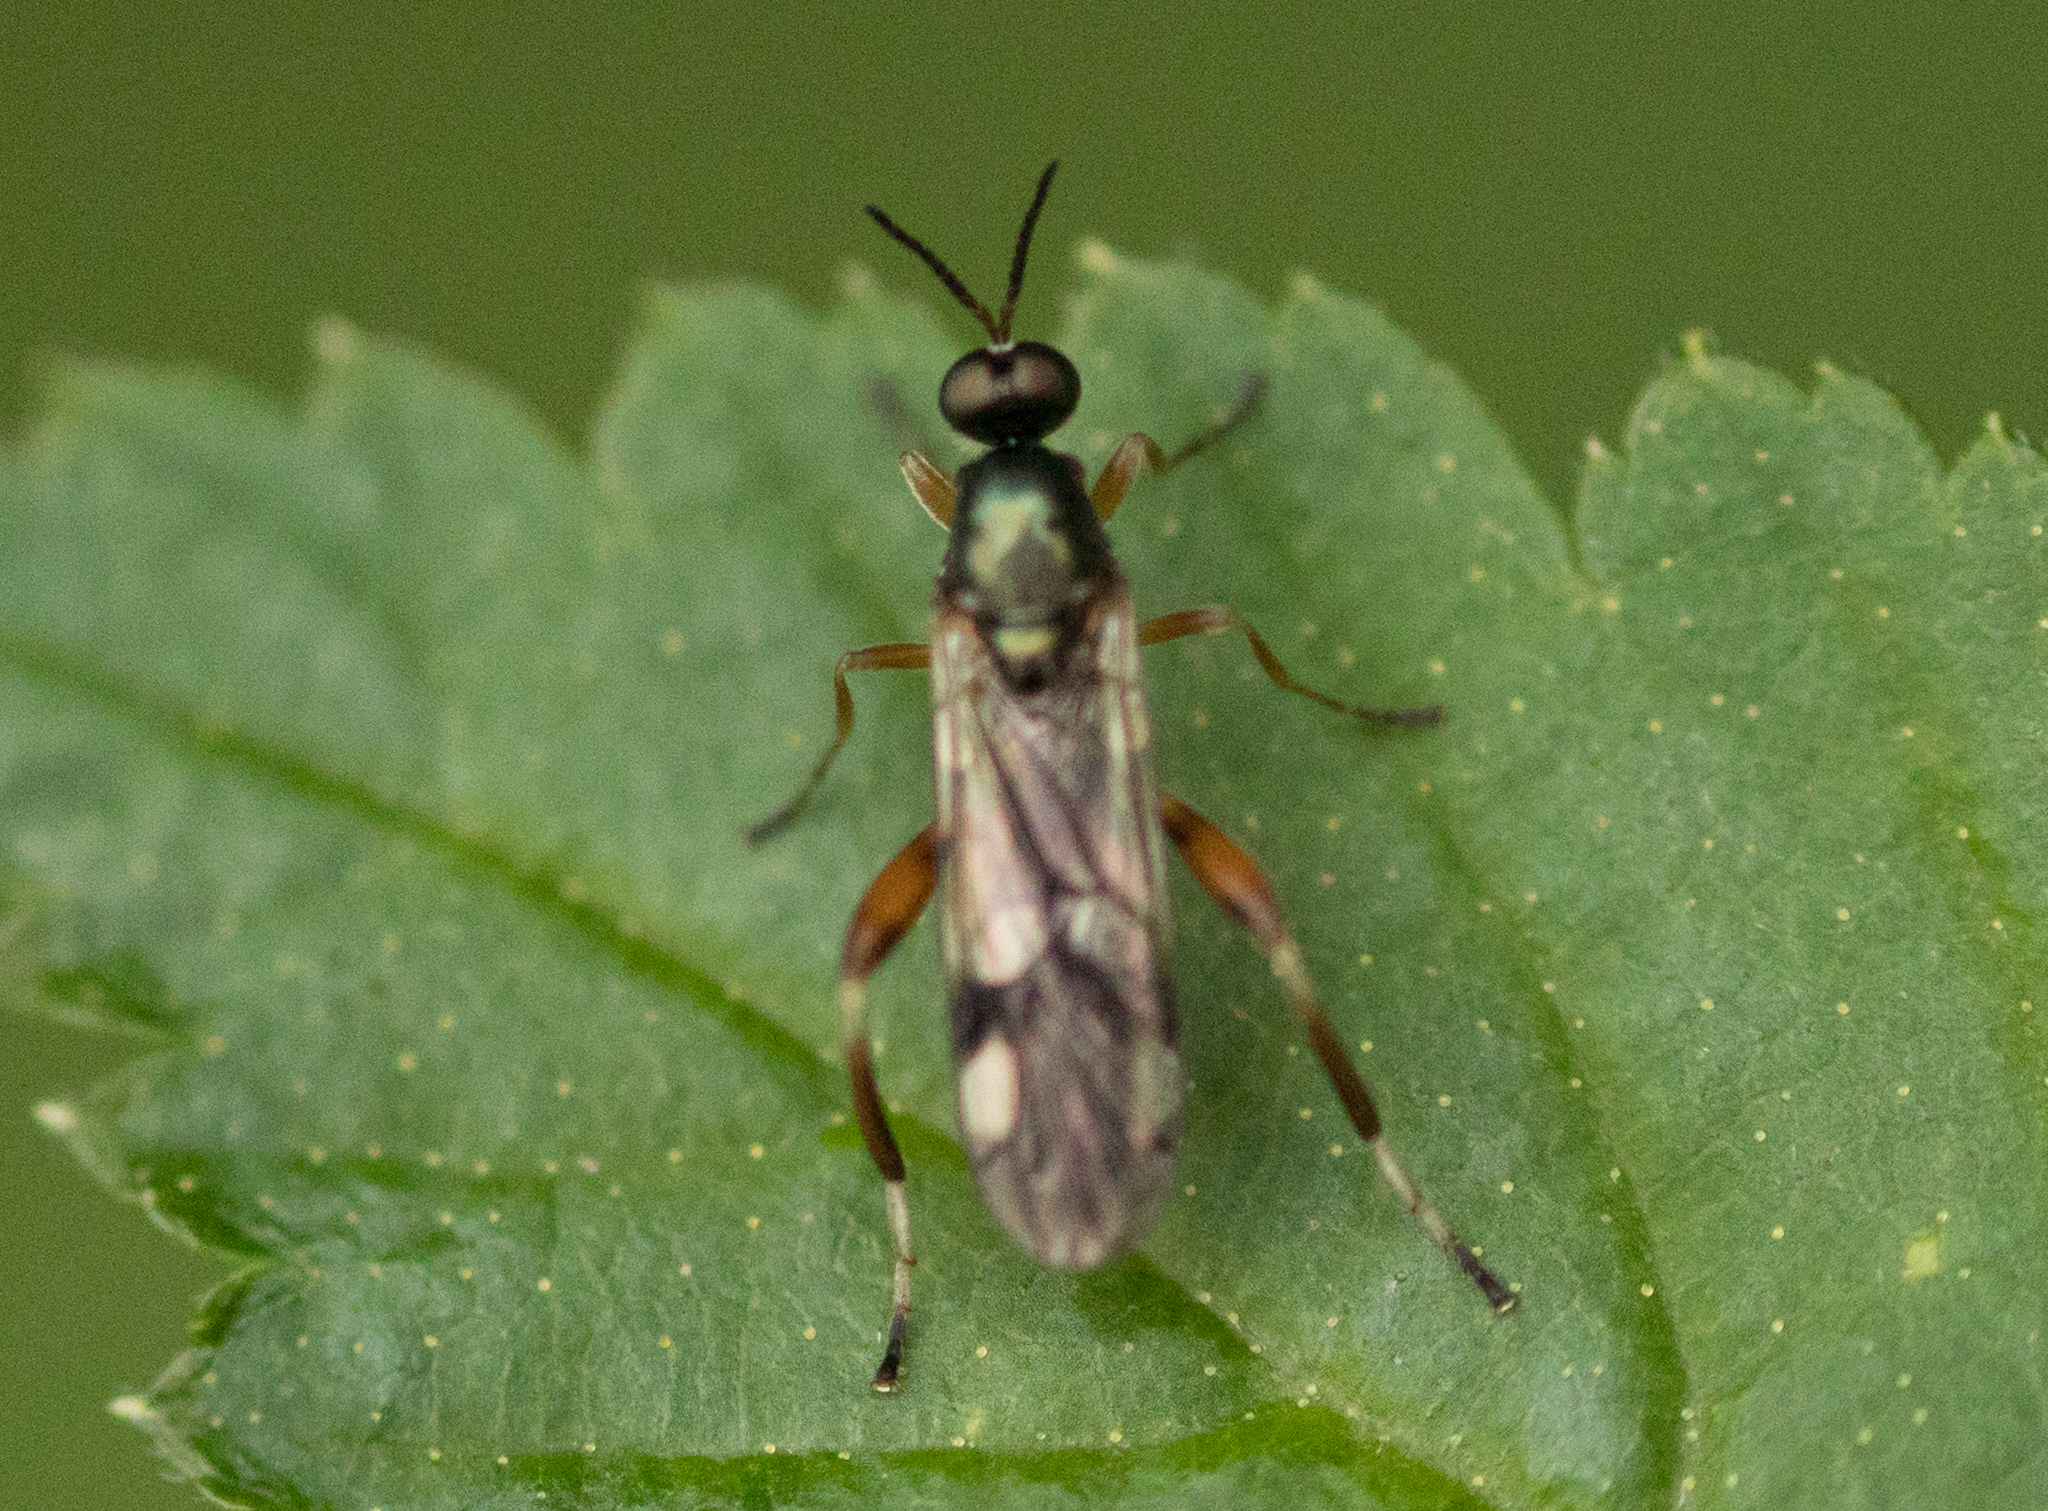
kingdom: Animalia
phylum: Arthropoda
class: Insecta
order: Diptera
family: Stratiomyidae
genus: Neoberis
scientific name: Neoberis brasiliana
